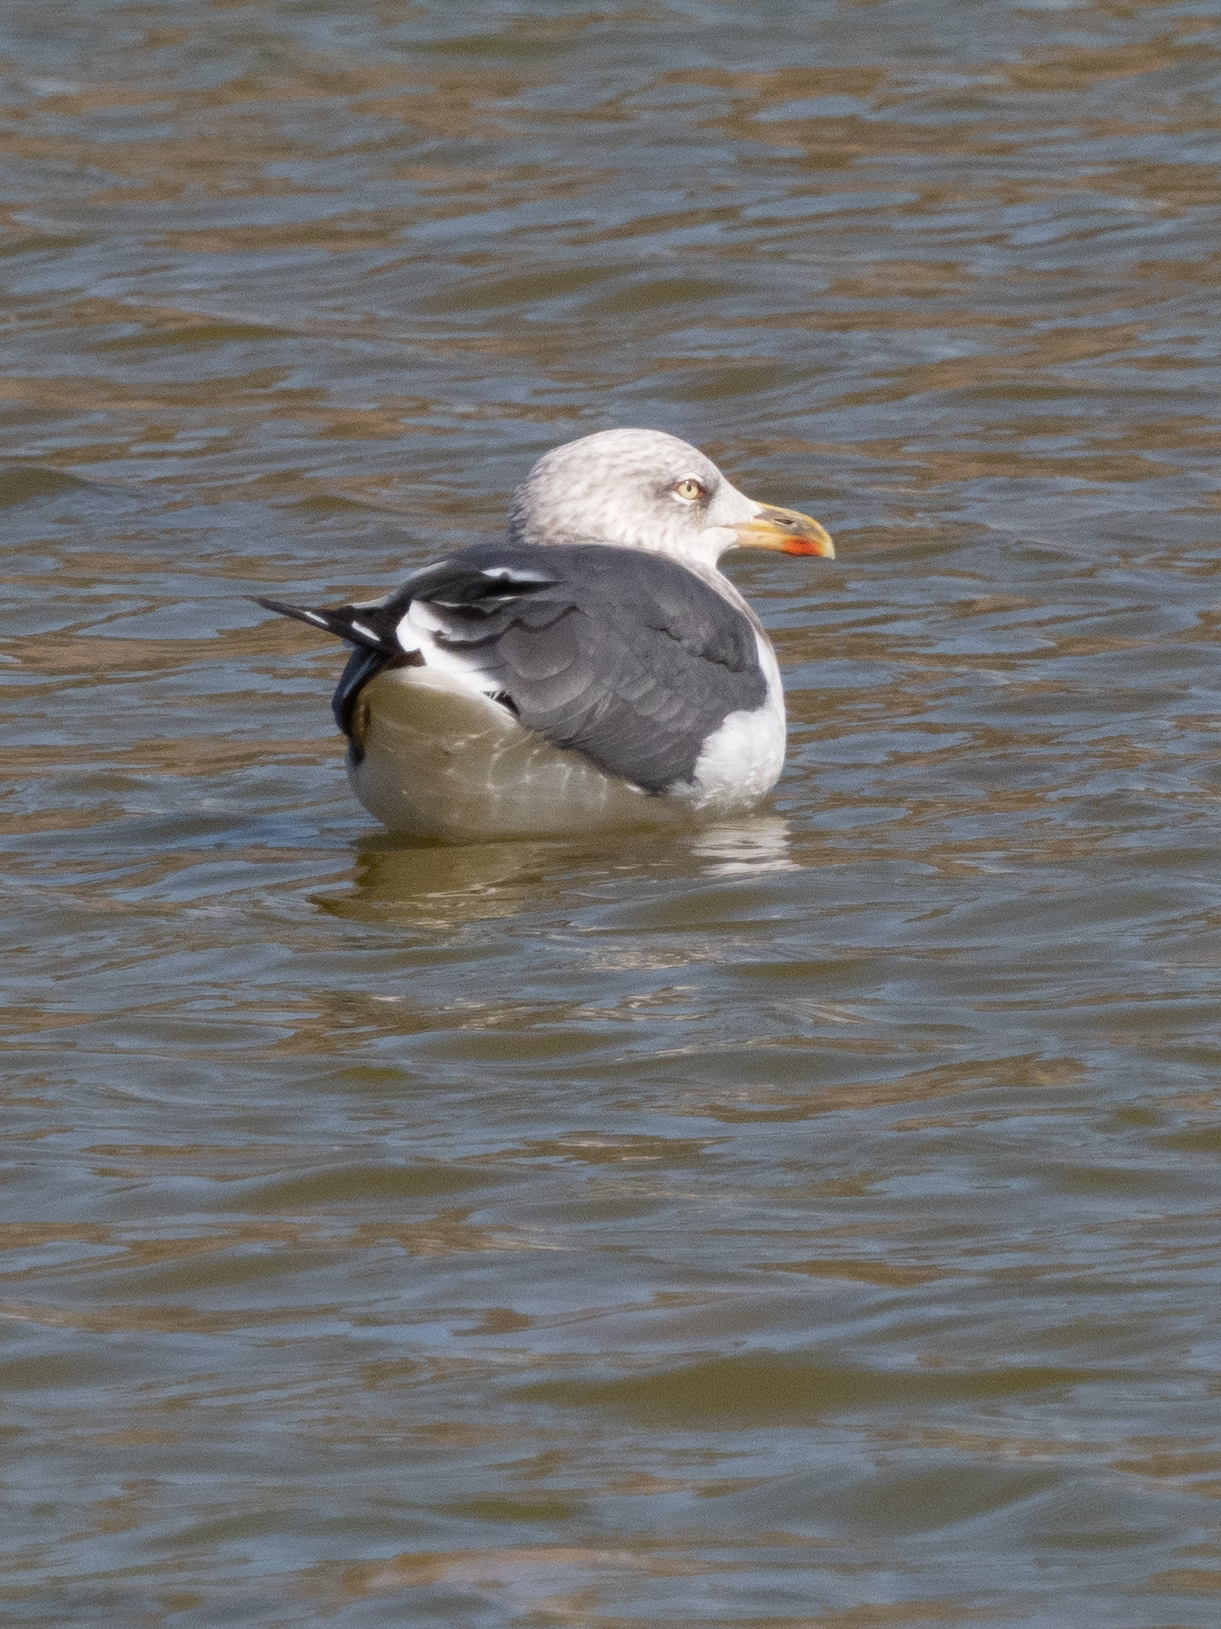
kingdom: Animalia
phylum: Chordata
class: Aves
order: Charadriiformes
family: Laridae
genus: Larus
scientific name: Larus michahellis
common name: Yellow-legged gull
